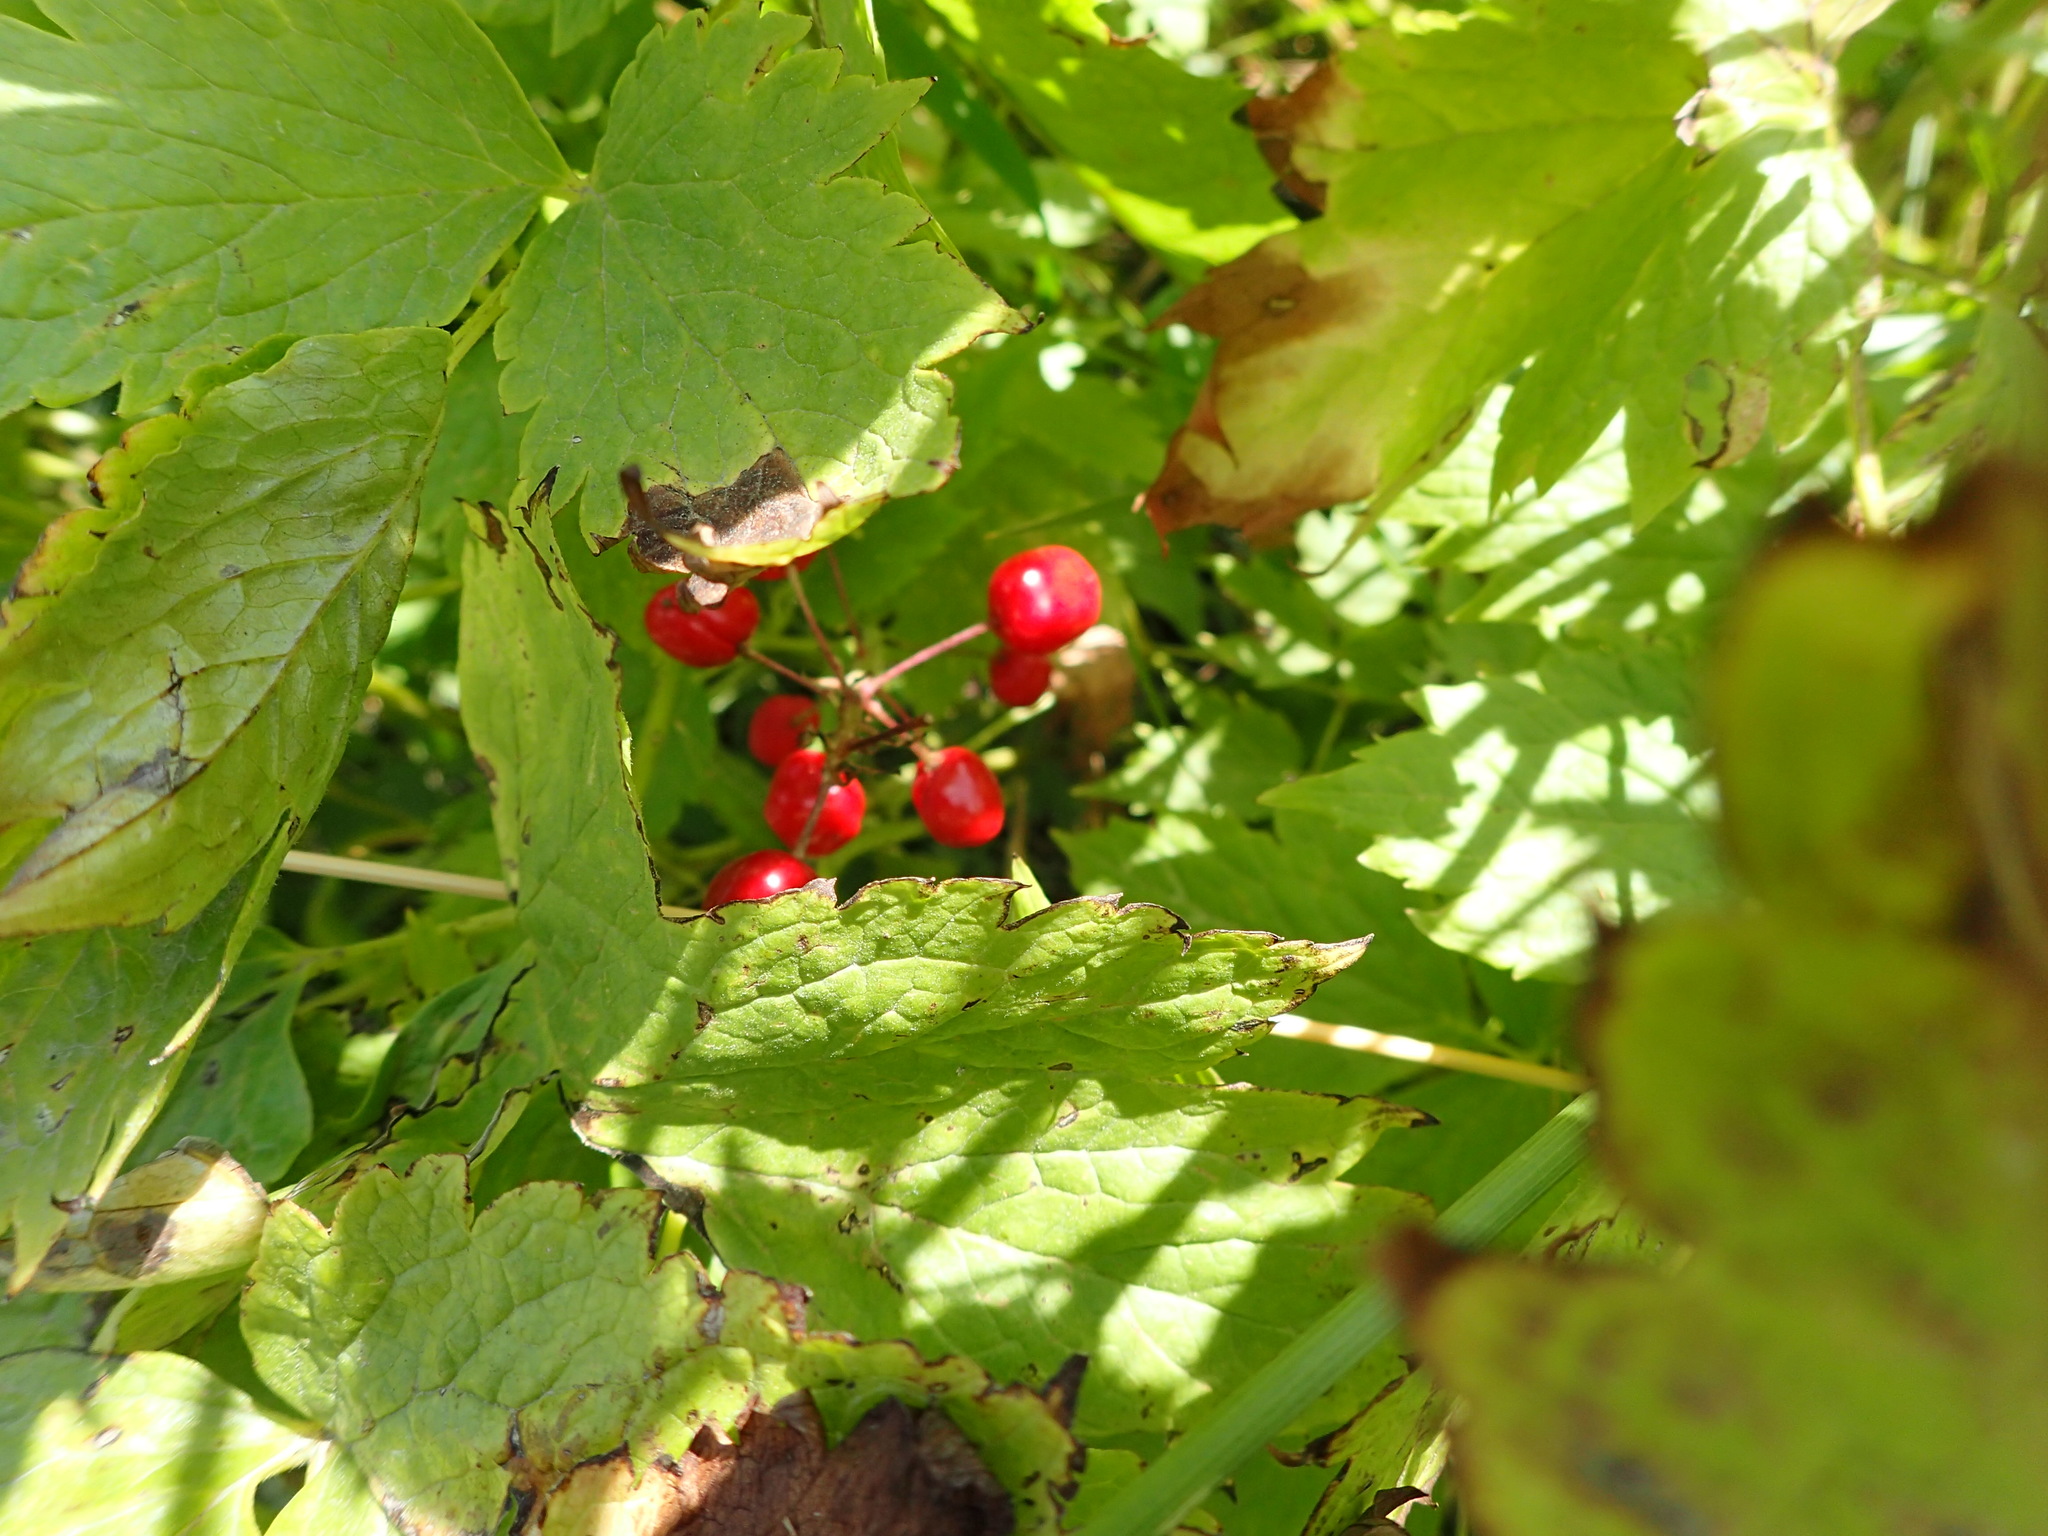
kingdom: Plantae
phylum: Tracheophyta
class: Magnoliopsida
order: Ranunculales
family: Ranunculaceae
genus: Actaea
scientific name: Actaea rubra
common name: Red baneberry
